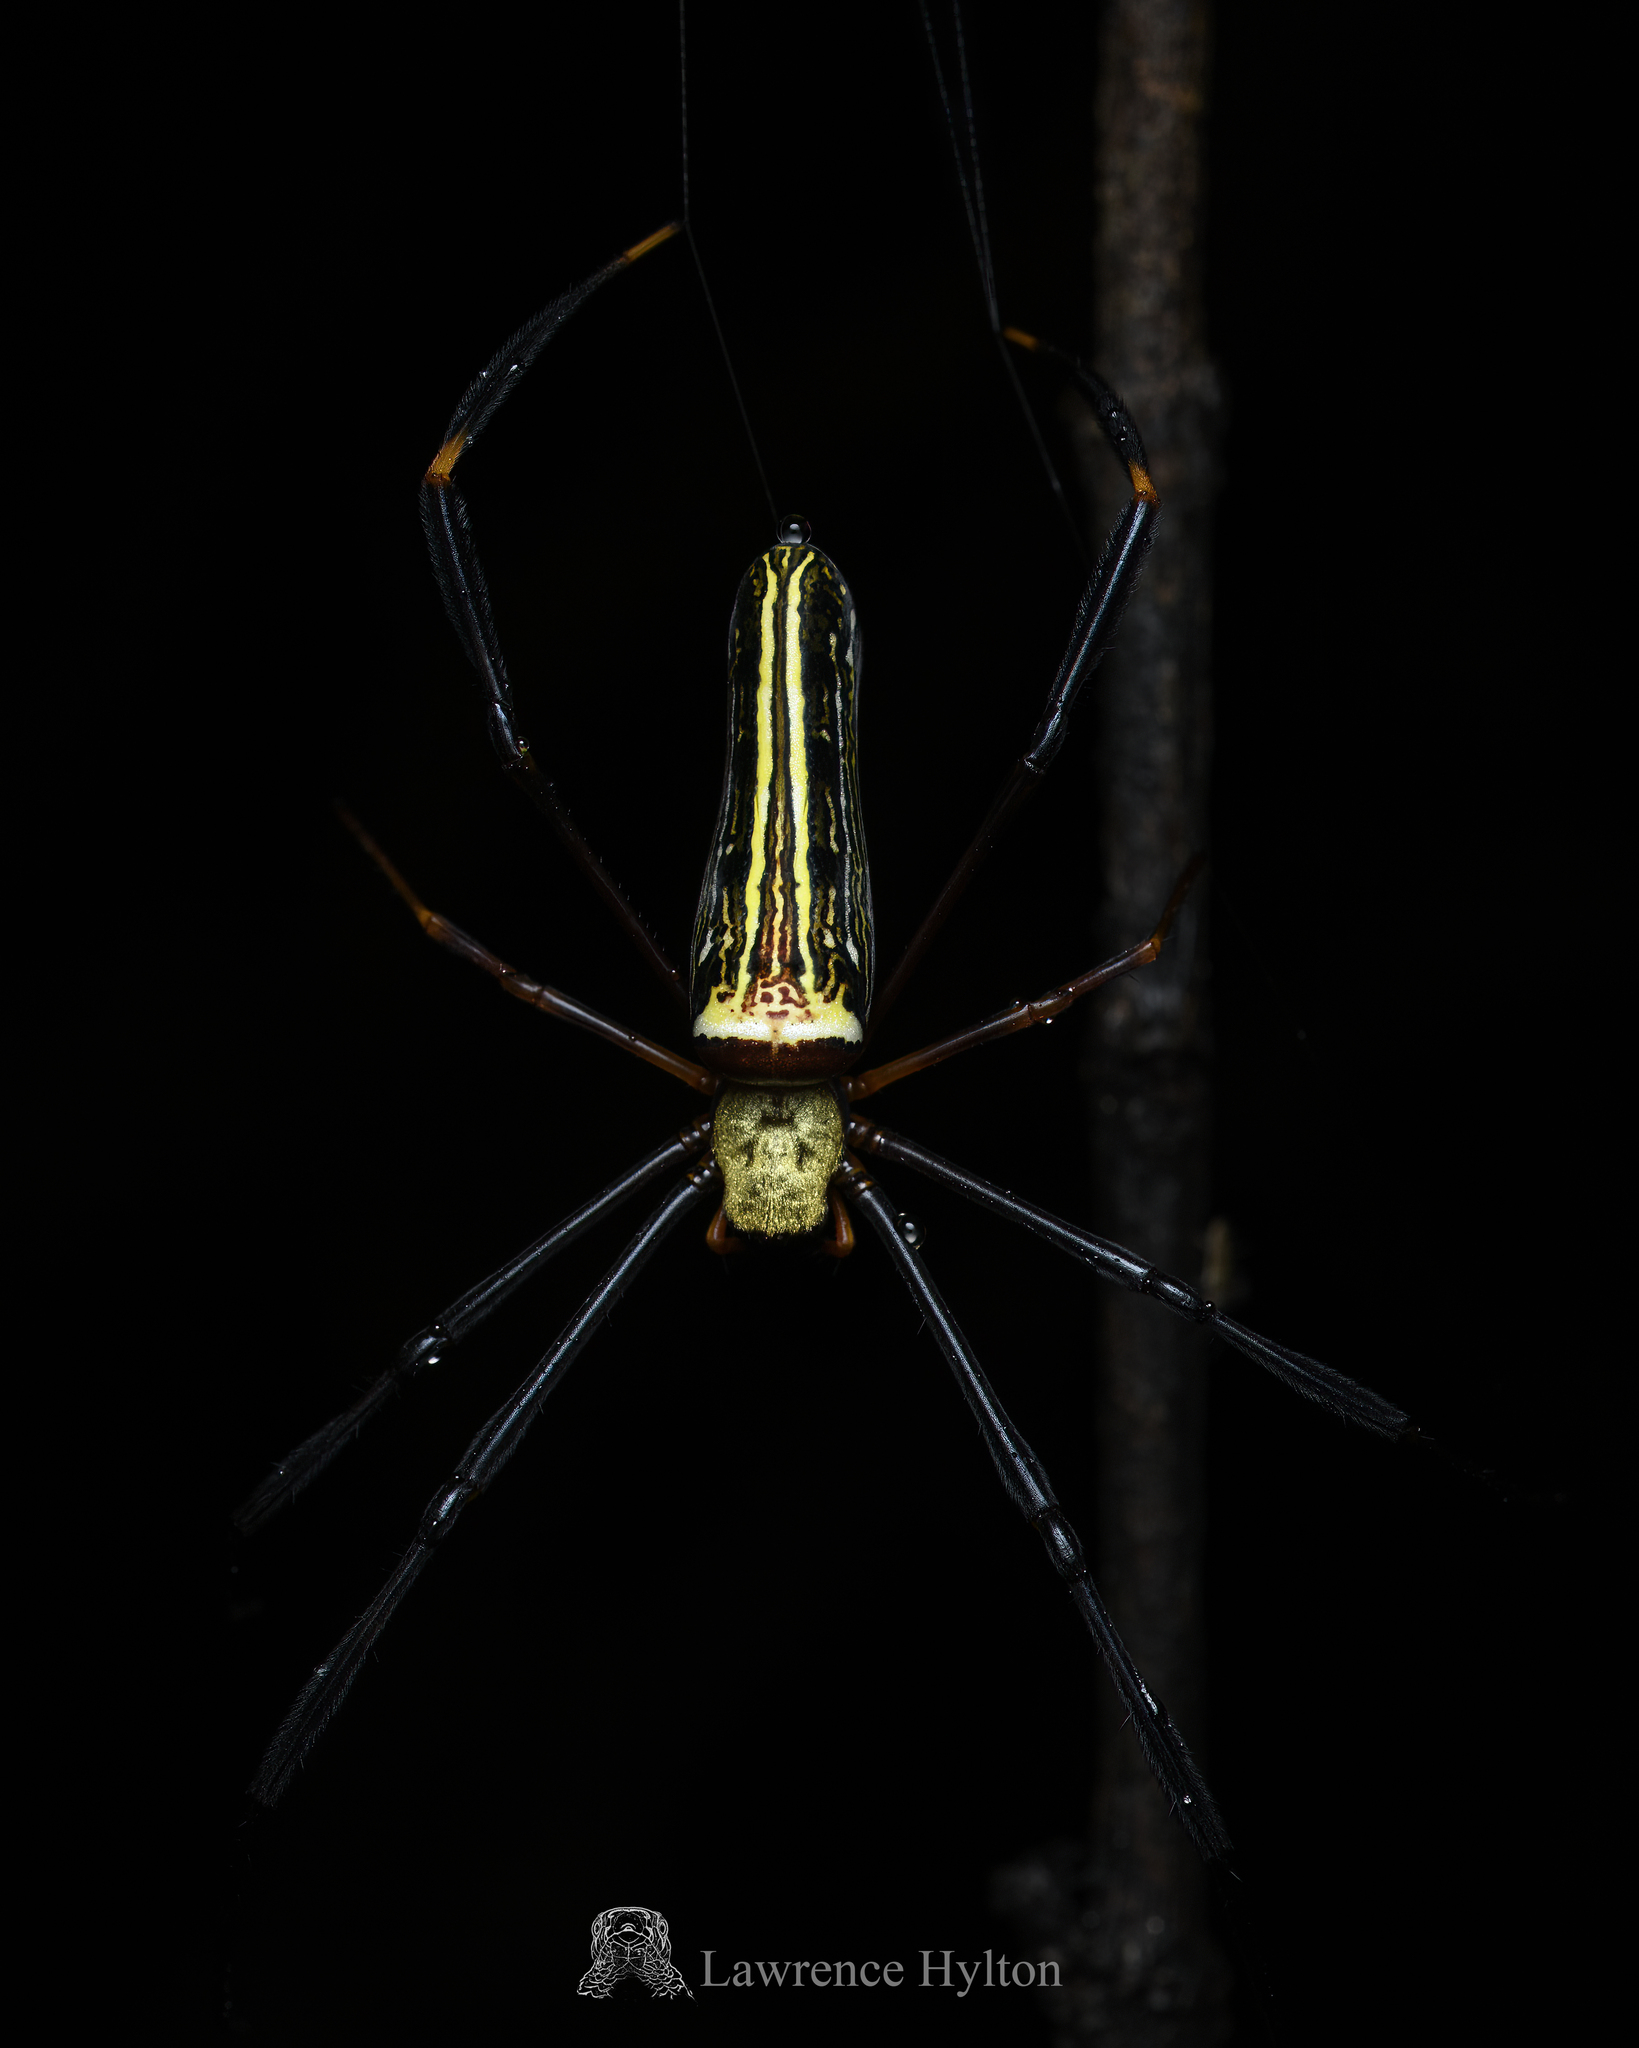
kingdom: Animalia
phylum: Arthropoda
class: Arachnida
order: Araneae
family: Araneidae
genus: Nephila
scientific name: Nephila pilipes
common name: Giant golden orb weaver
